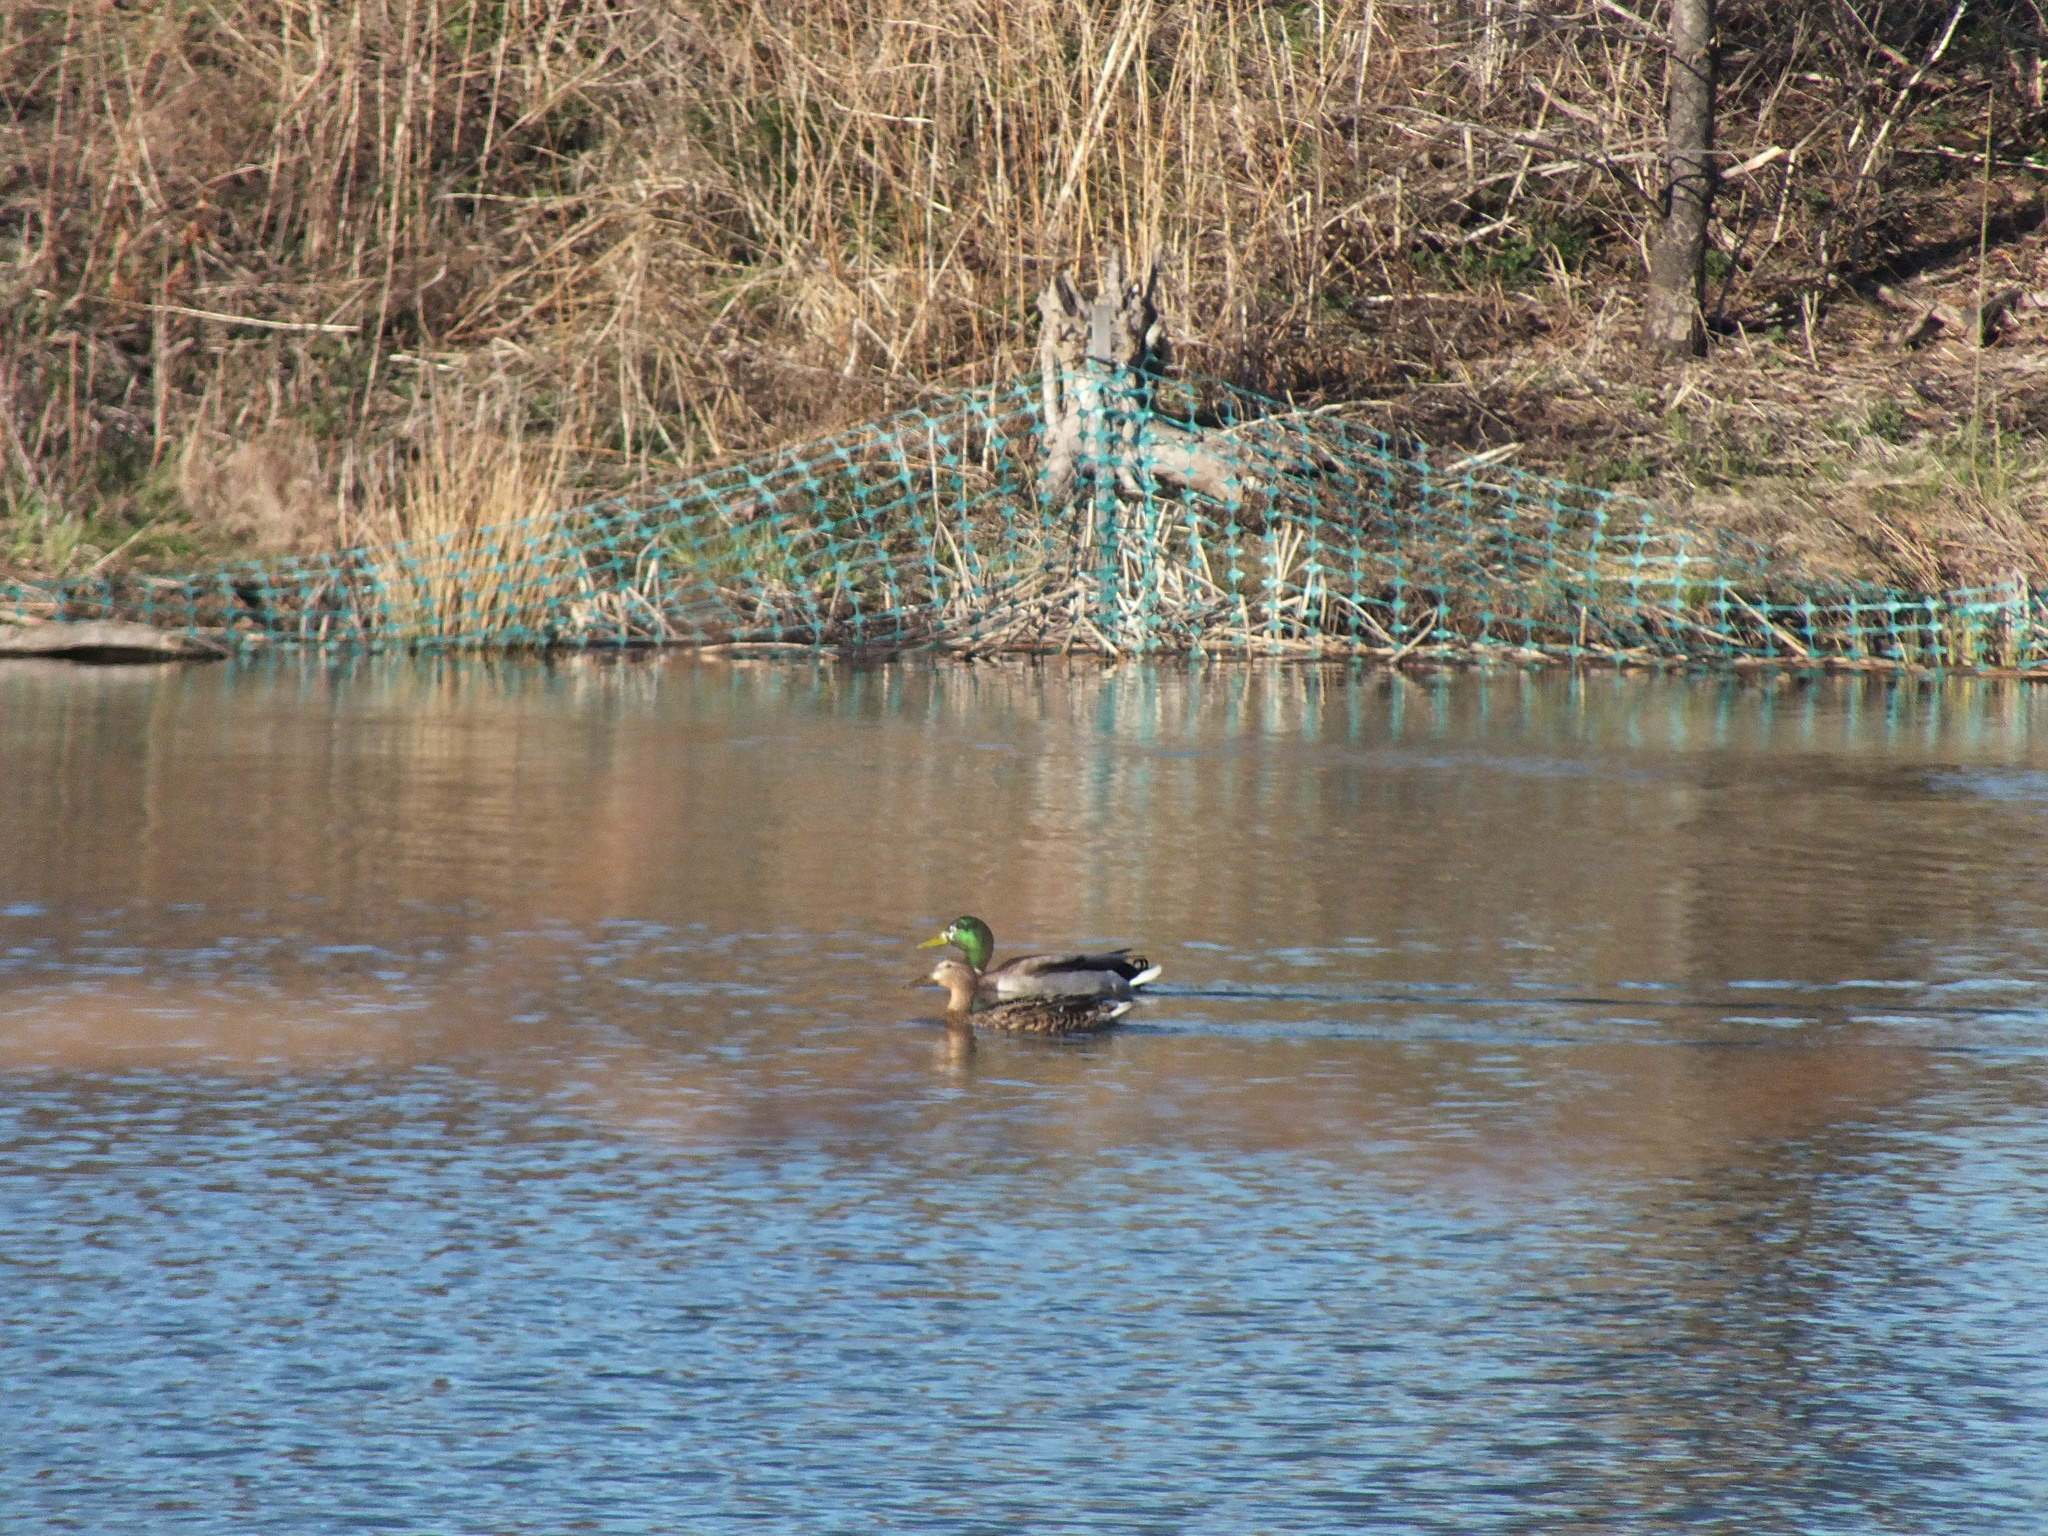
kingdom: Animalia
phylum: Chordata
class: Aves
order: Anseriformes
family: Anatidae
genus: Anas
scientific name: Anas platyrhynchos
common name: Mallard
